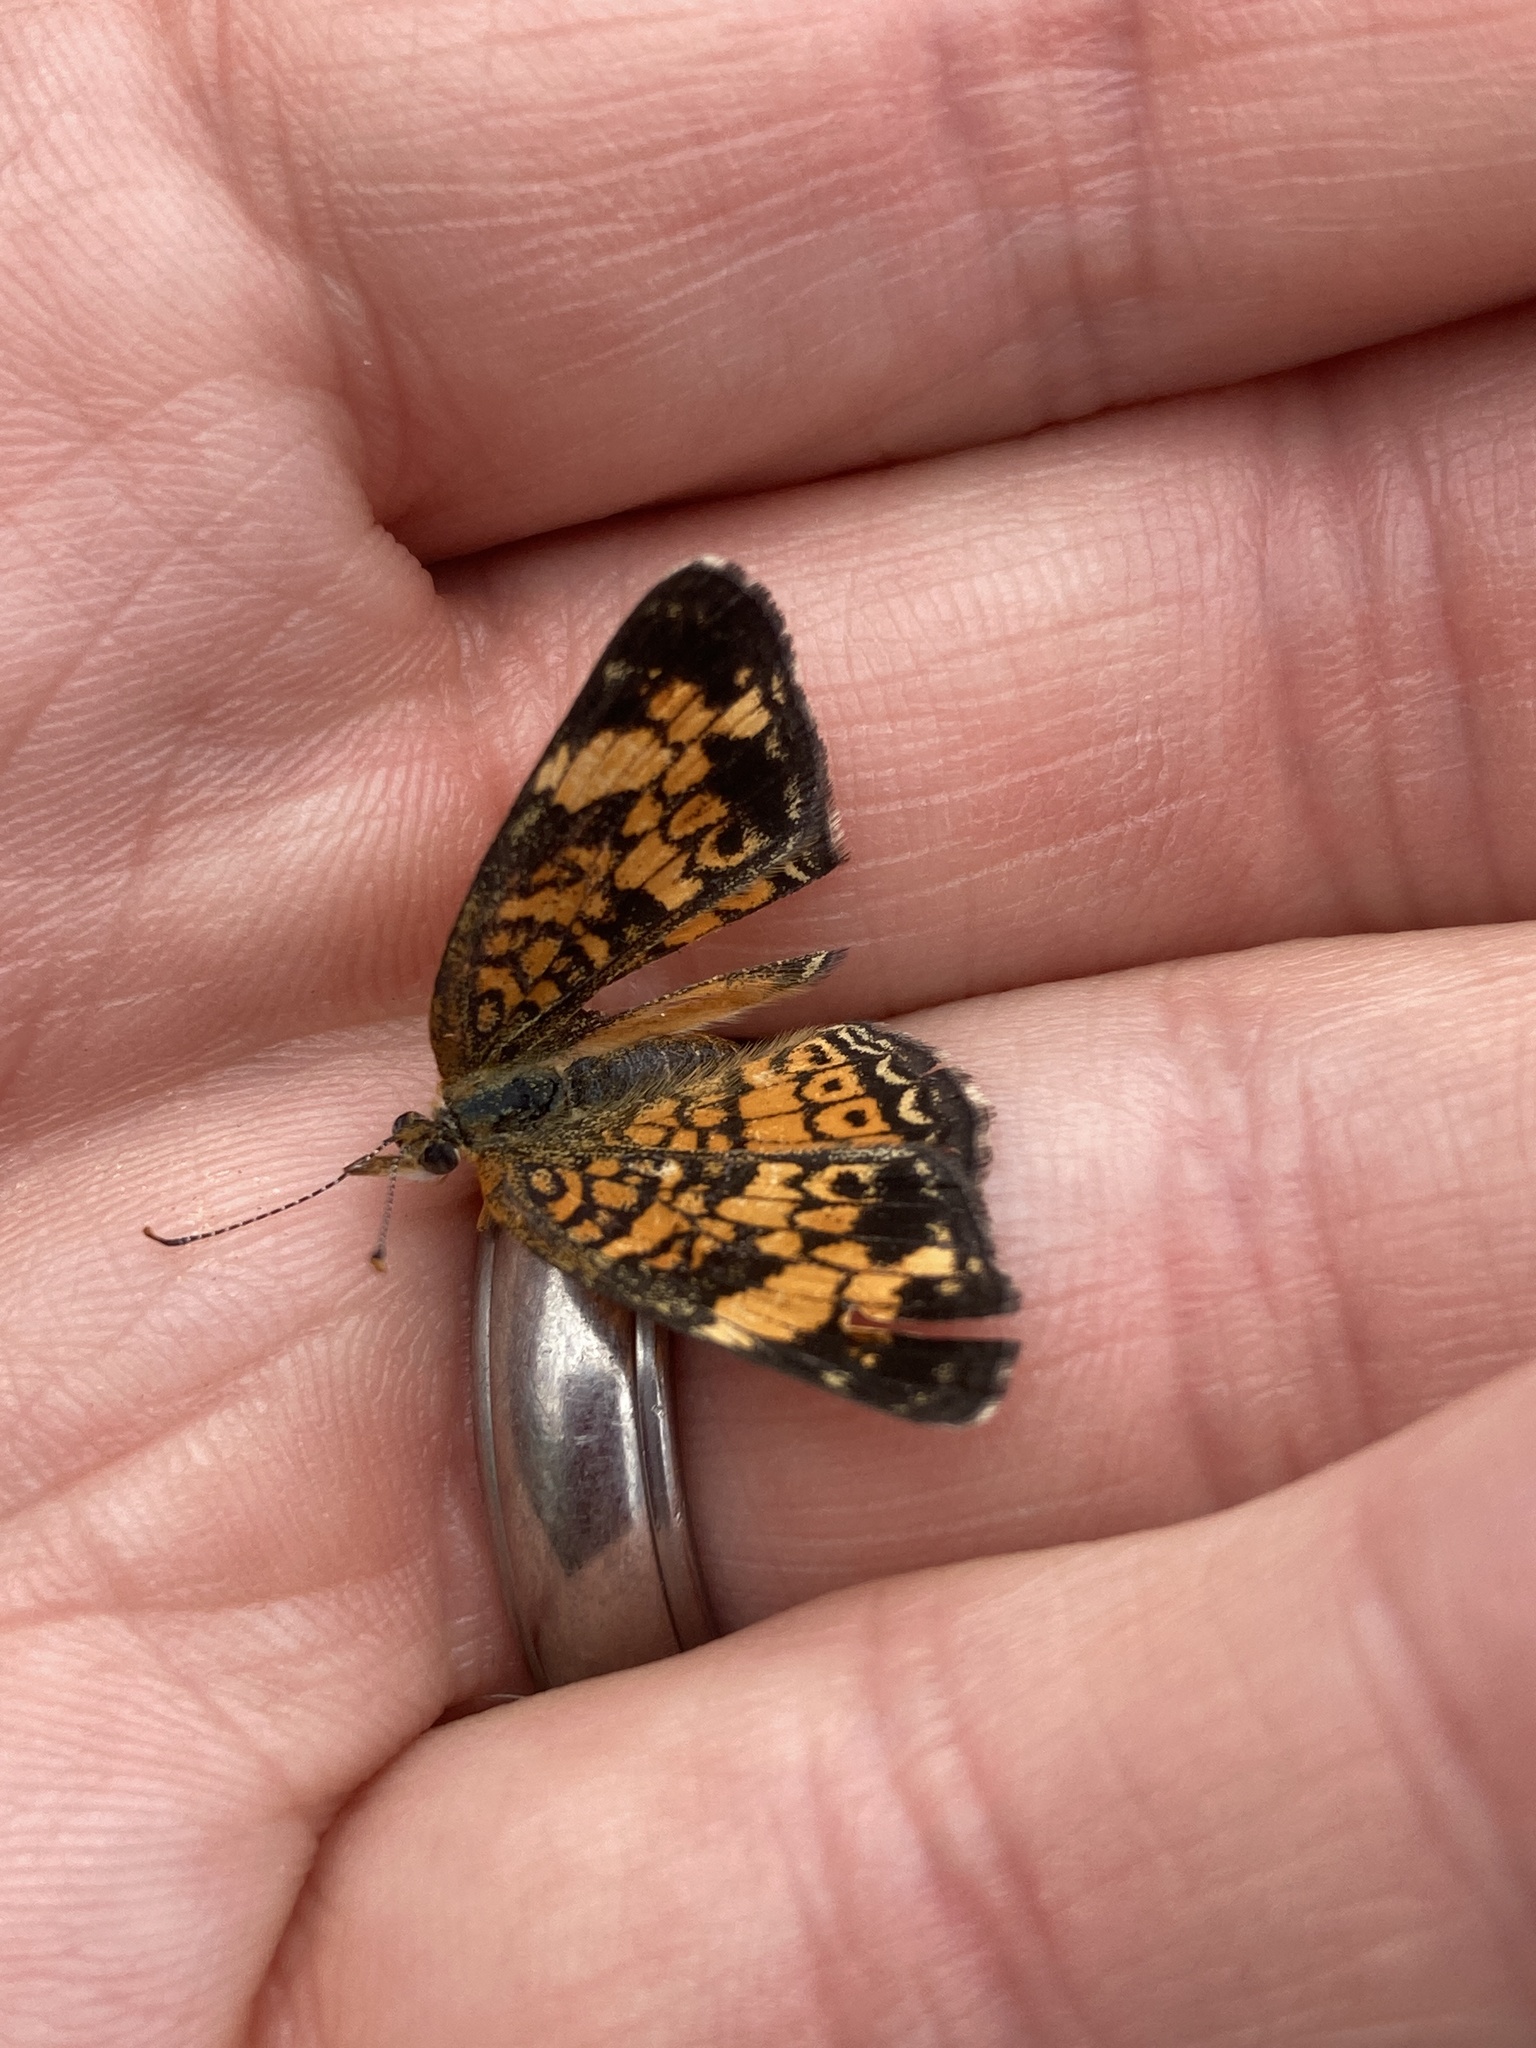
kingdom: Animalia
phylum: Arthropoda
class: Insecta
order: Lepidoptera
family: Nymphalidae
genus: Phyciodes
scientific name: Phyciodes tharos
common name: Pearl crescent
